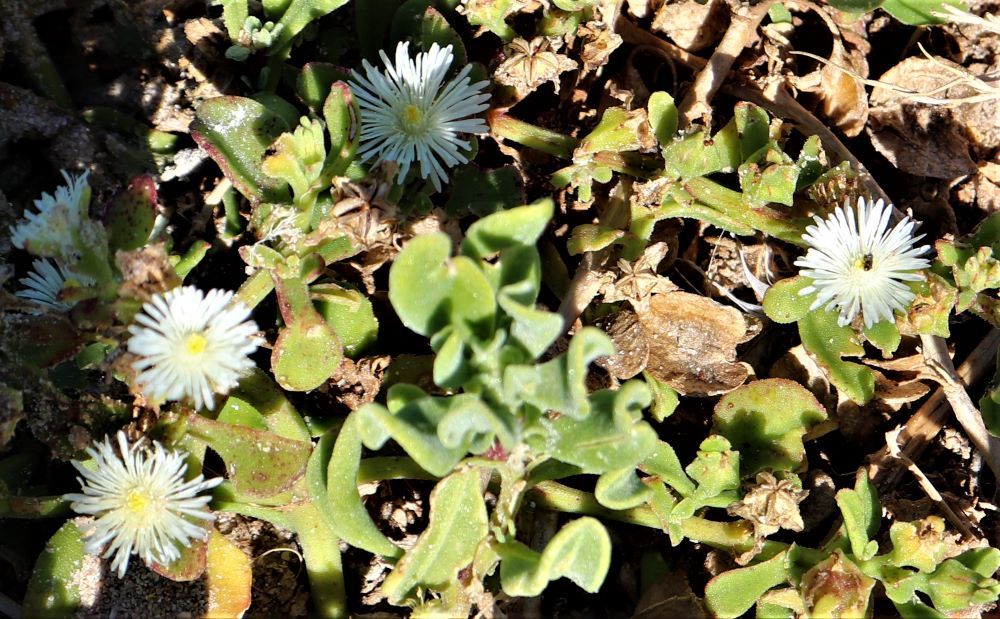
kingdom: Plantae
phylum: Tracheophyta
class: Magnoliopsida
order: Caryophyllales
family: Aizoaceae
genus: Mesembryanthemum
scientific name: Mesembryanthemum aitonis
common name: Angled iceplant
